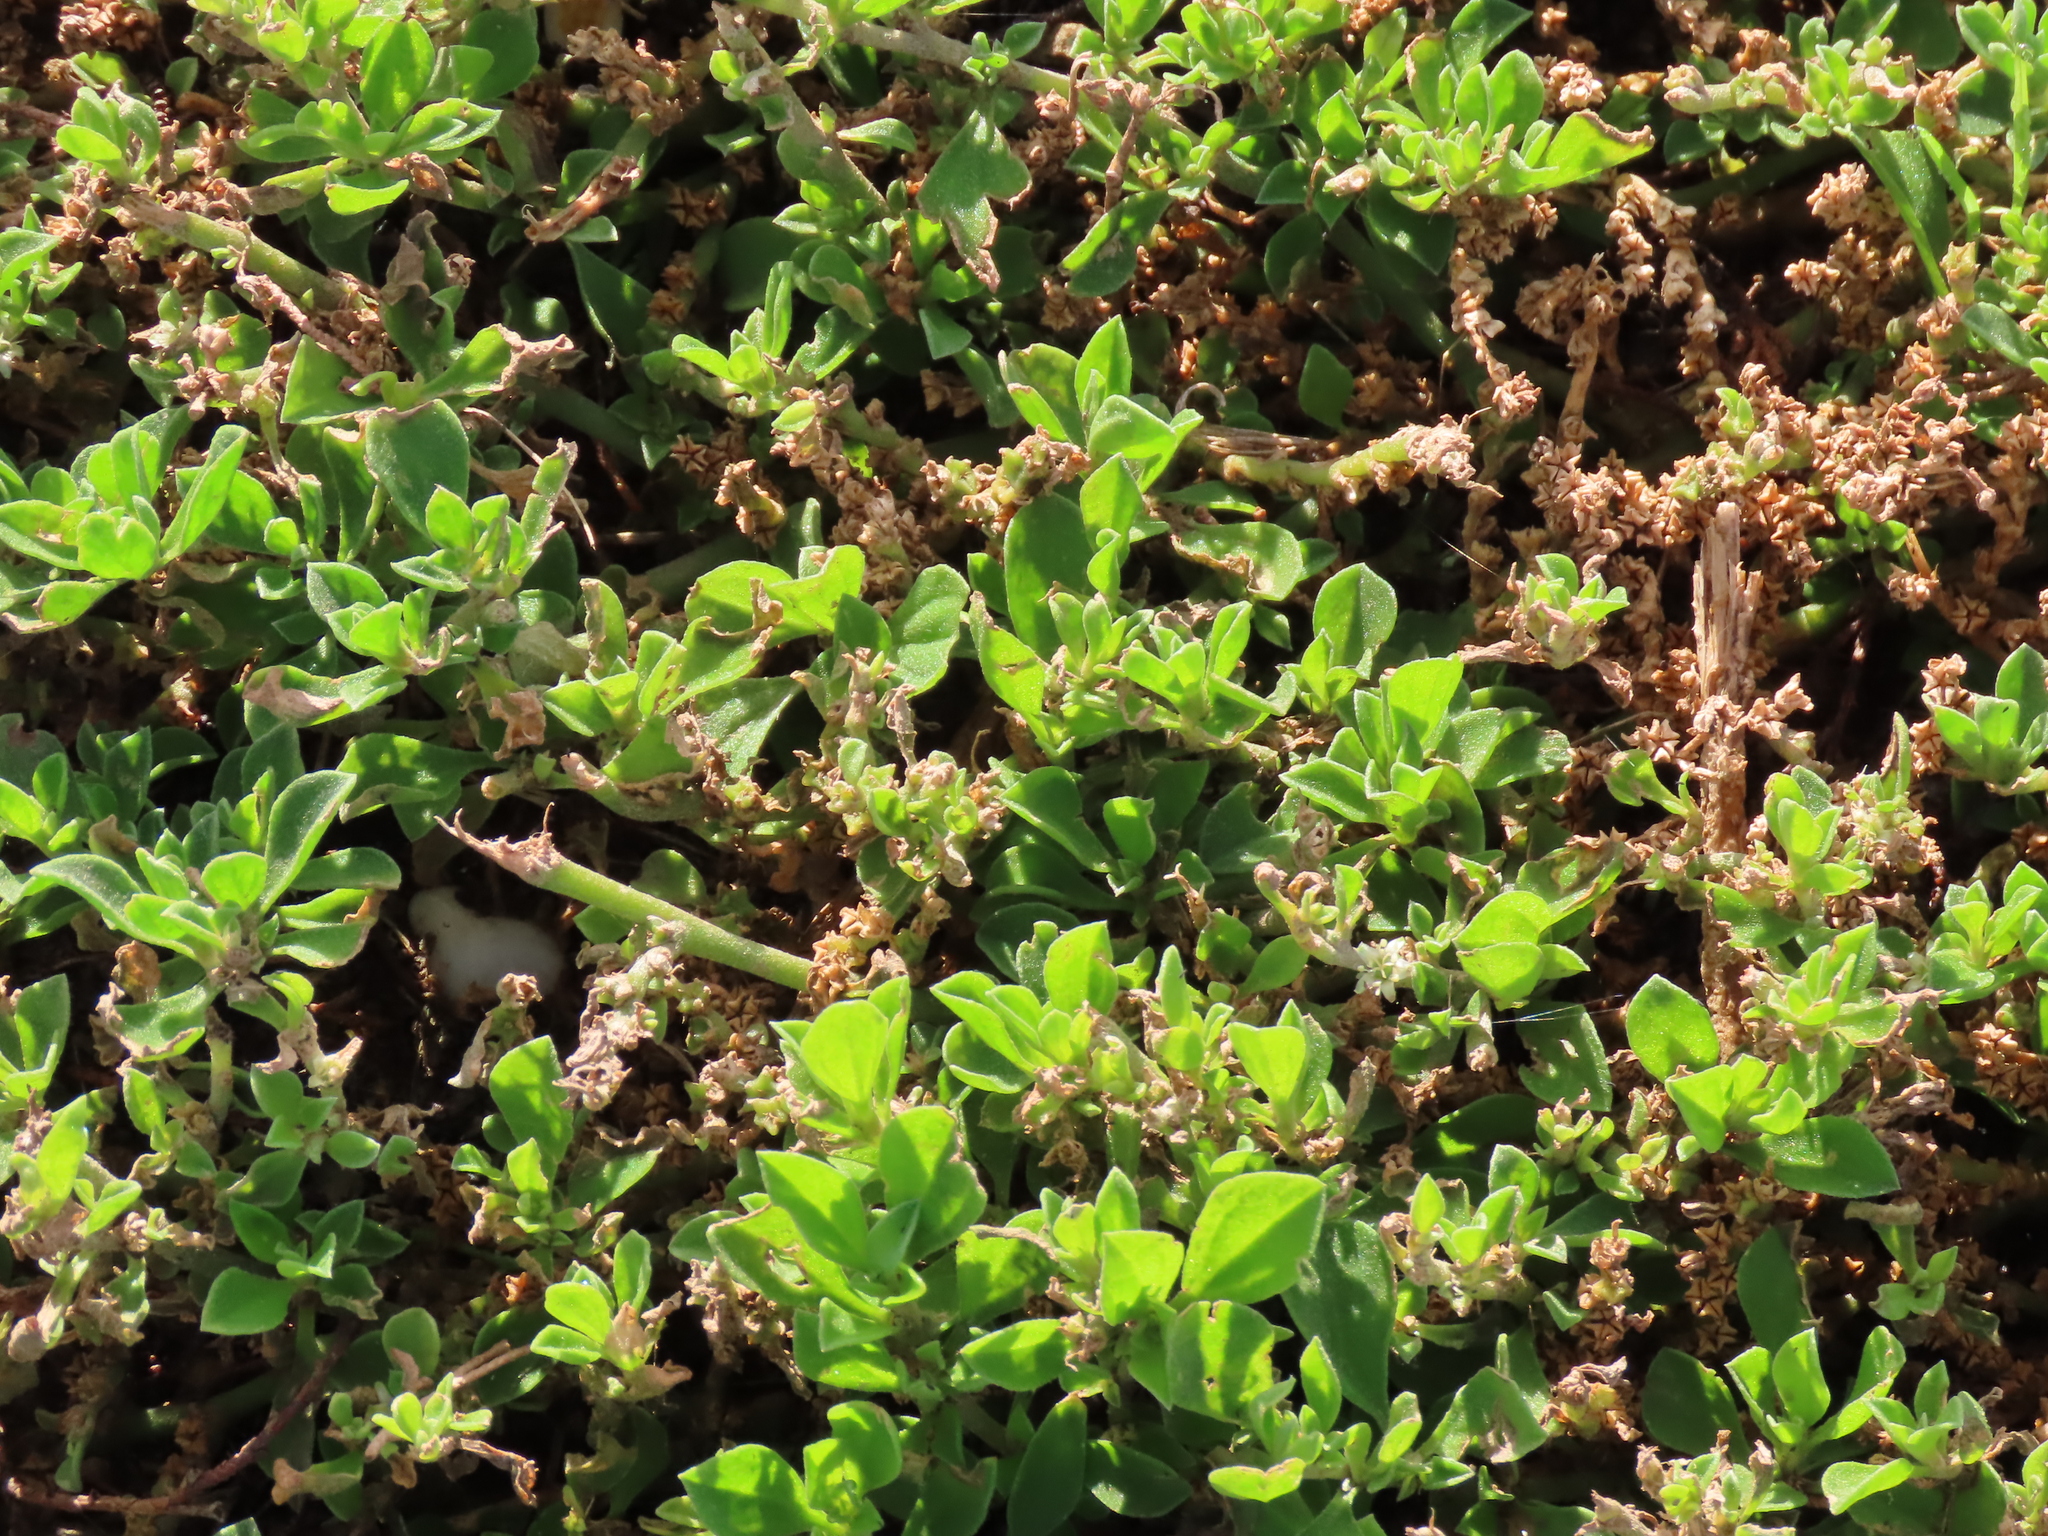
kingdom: Plantae
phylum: Tracheophyta
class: Magnoliopsida
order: Caryophyllales
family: Aizoaceae
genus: Aizoon
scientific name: Aizoon pubescens
